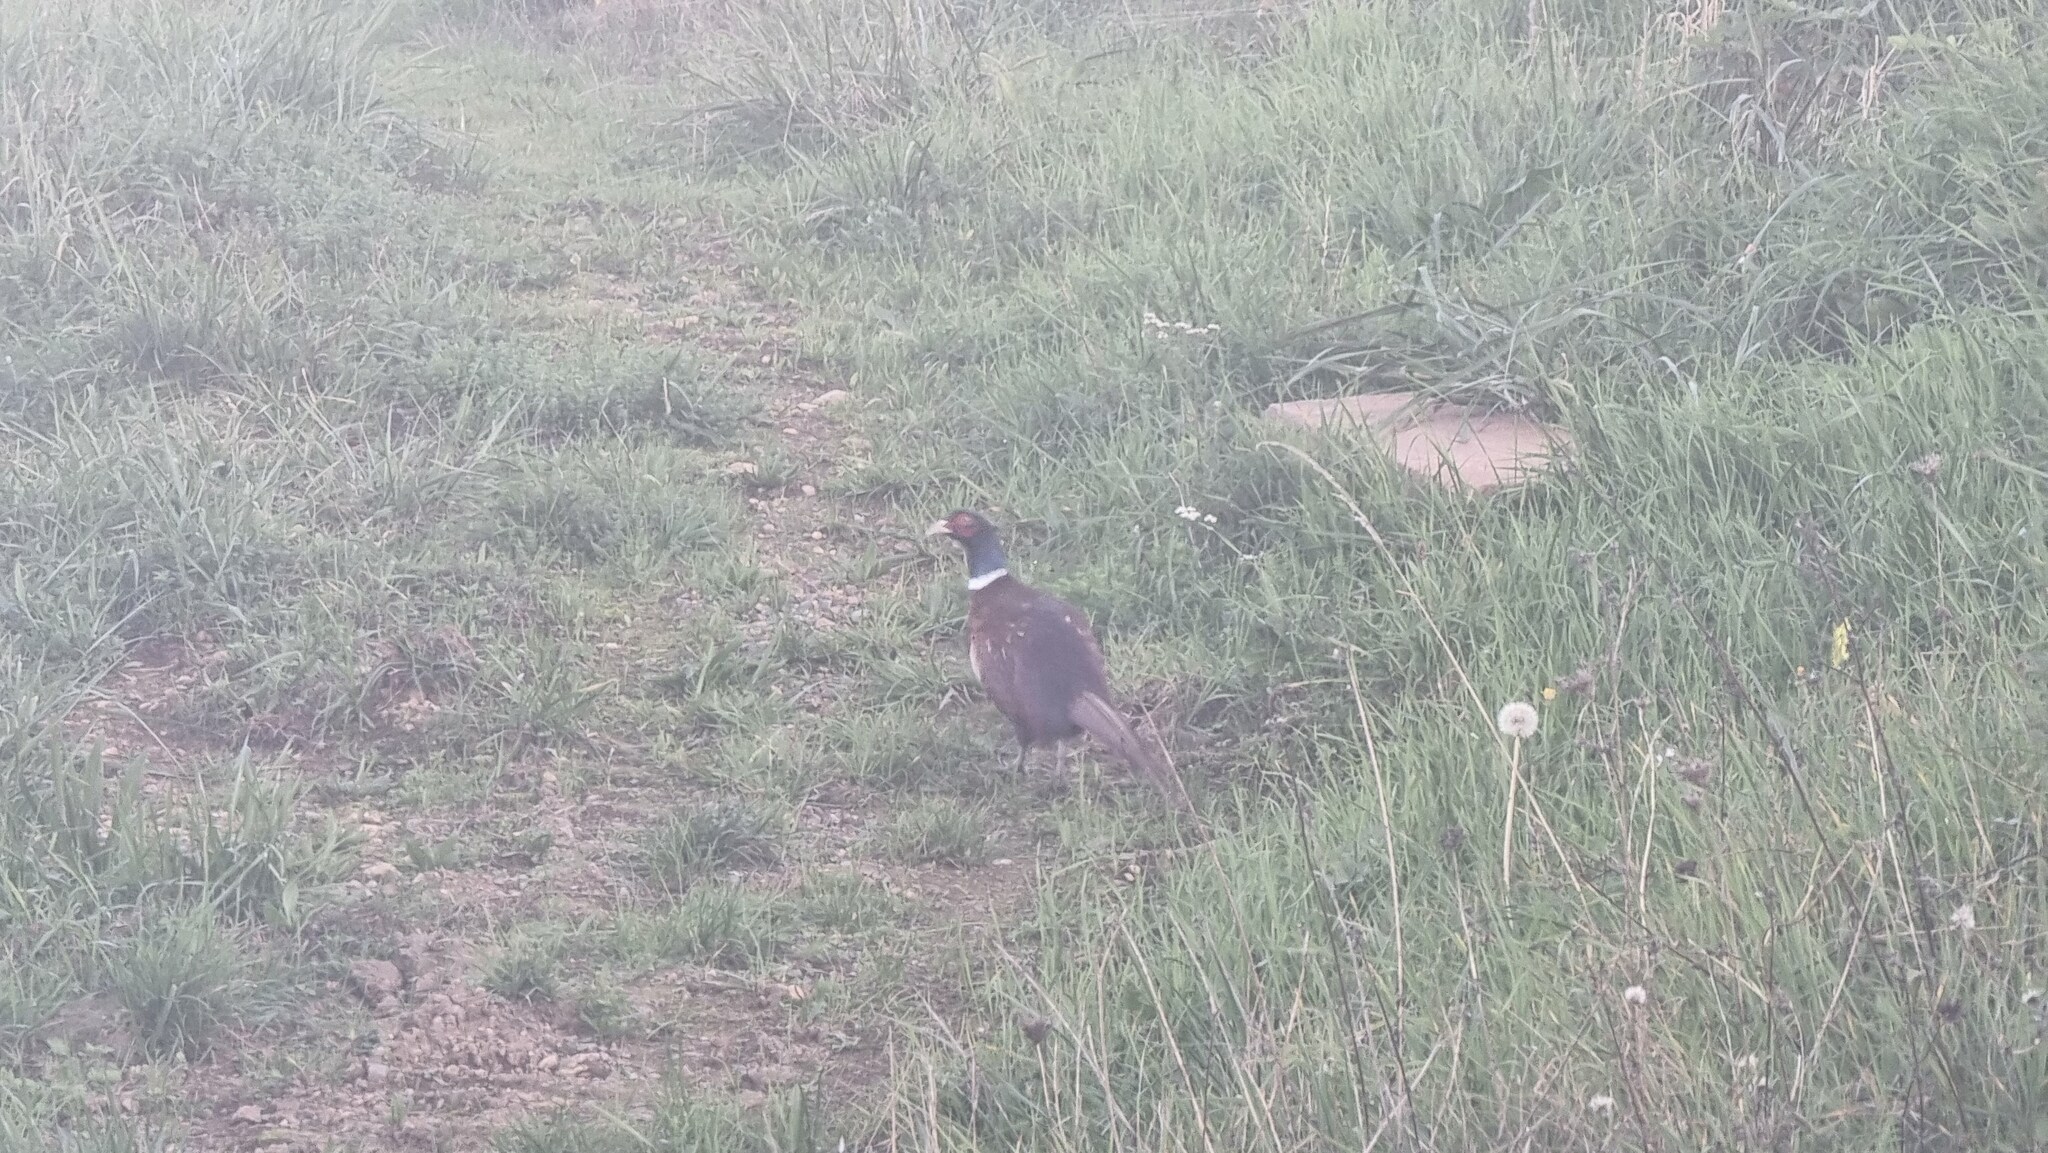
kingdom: Animalia
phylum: Chordata
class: Aves
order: Galliformes
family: Phasianidae
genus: Phasianus
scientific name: Phasianus colchicus
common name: Common pheasant
